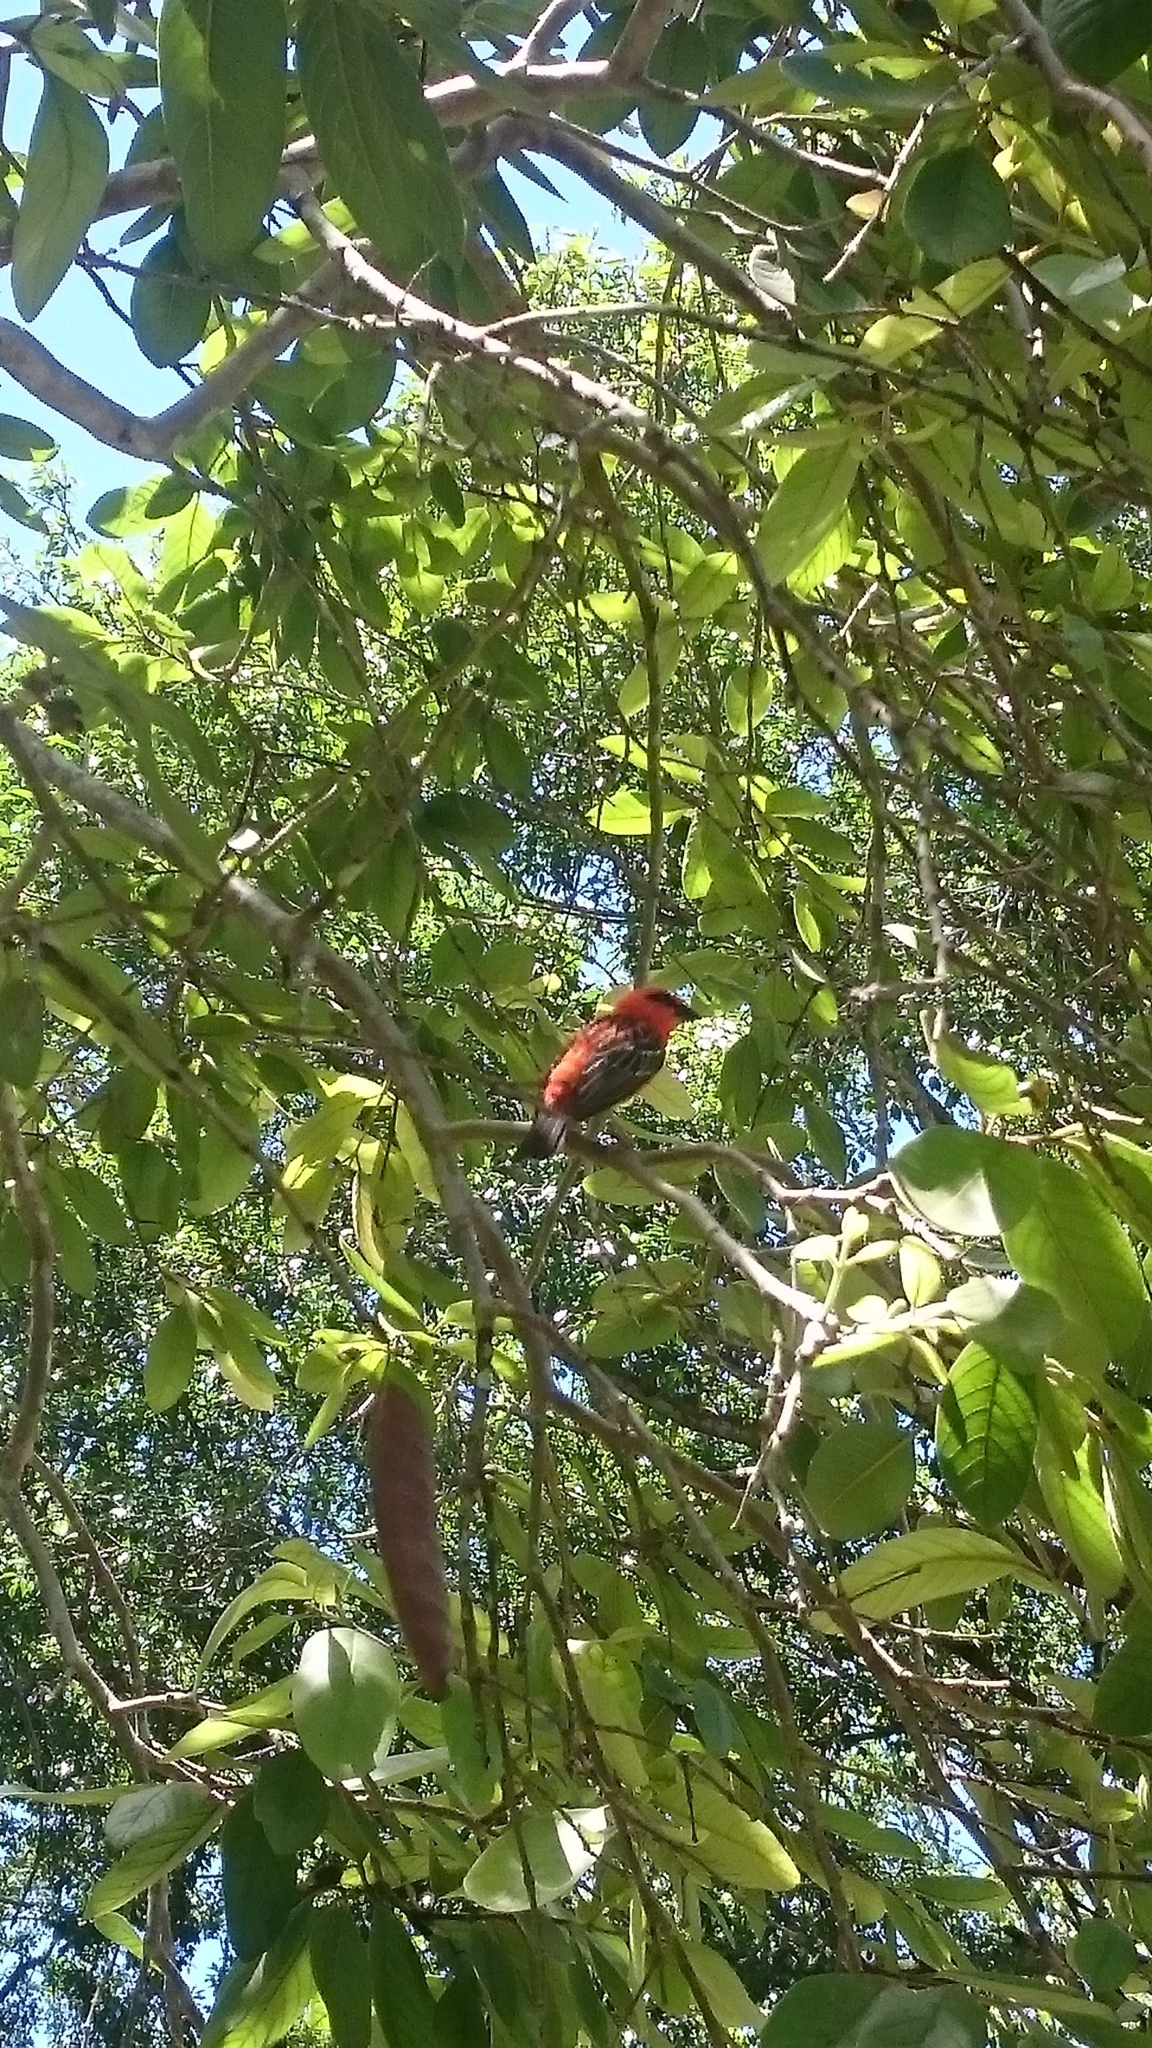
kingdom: Animalia
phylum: Chordata
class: Aves
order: Passeriformes
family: Ploceidae
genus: Foudia
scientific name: Foudia madagascariensis
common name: Red fody
